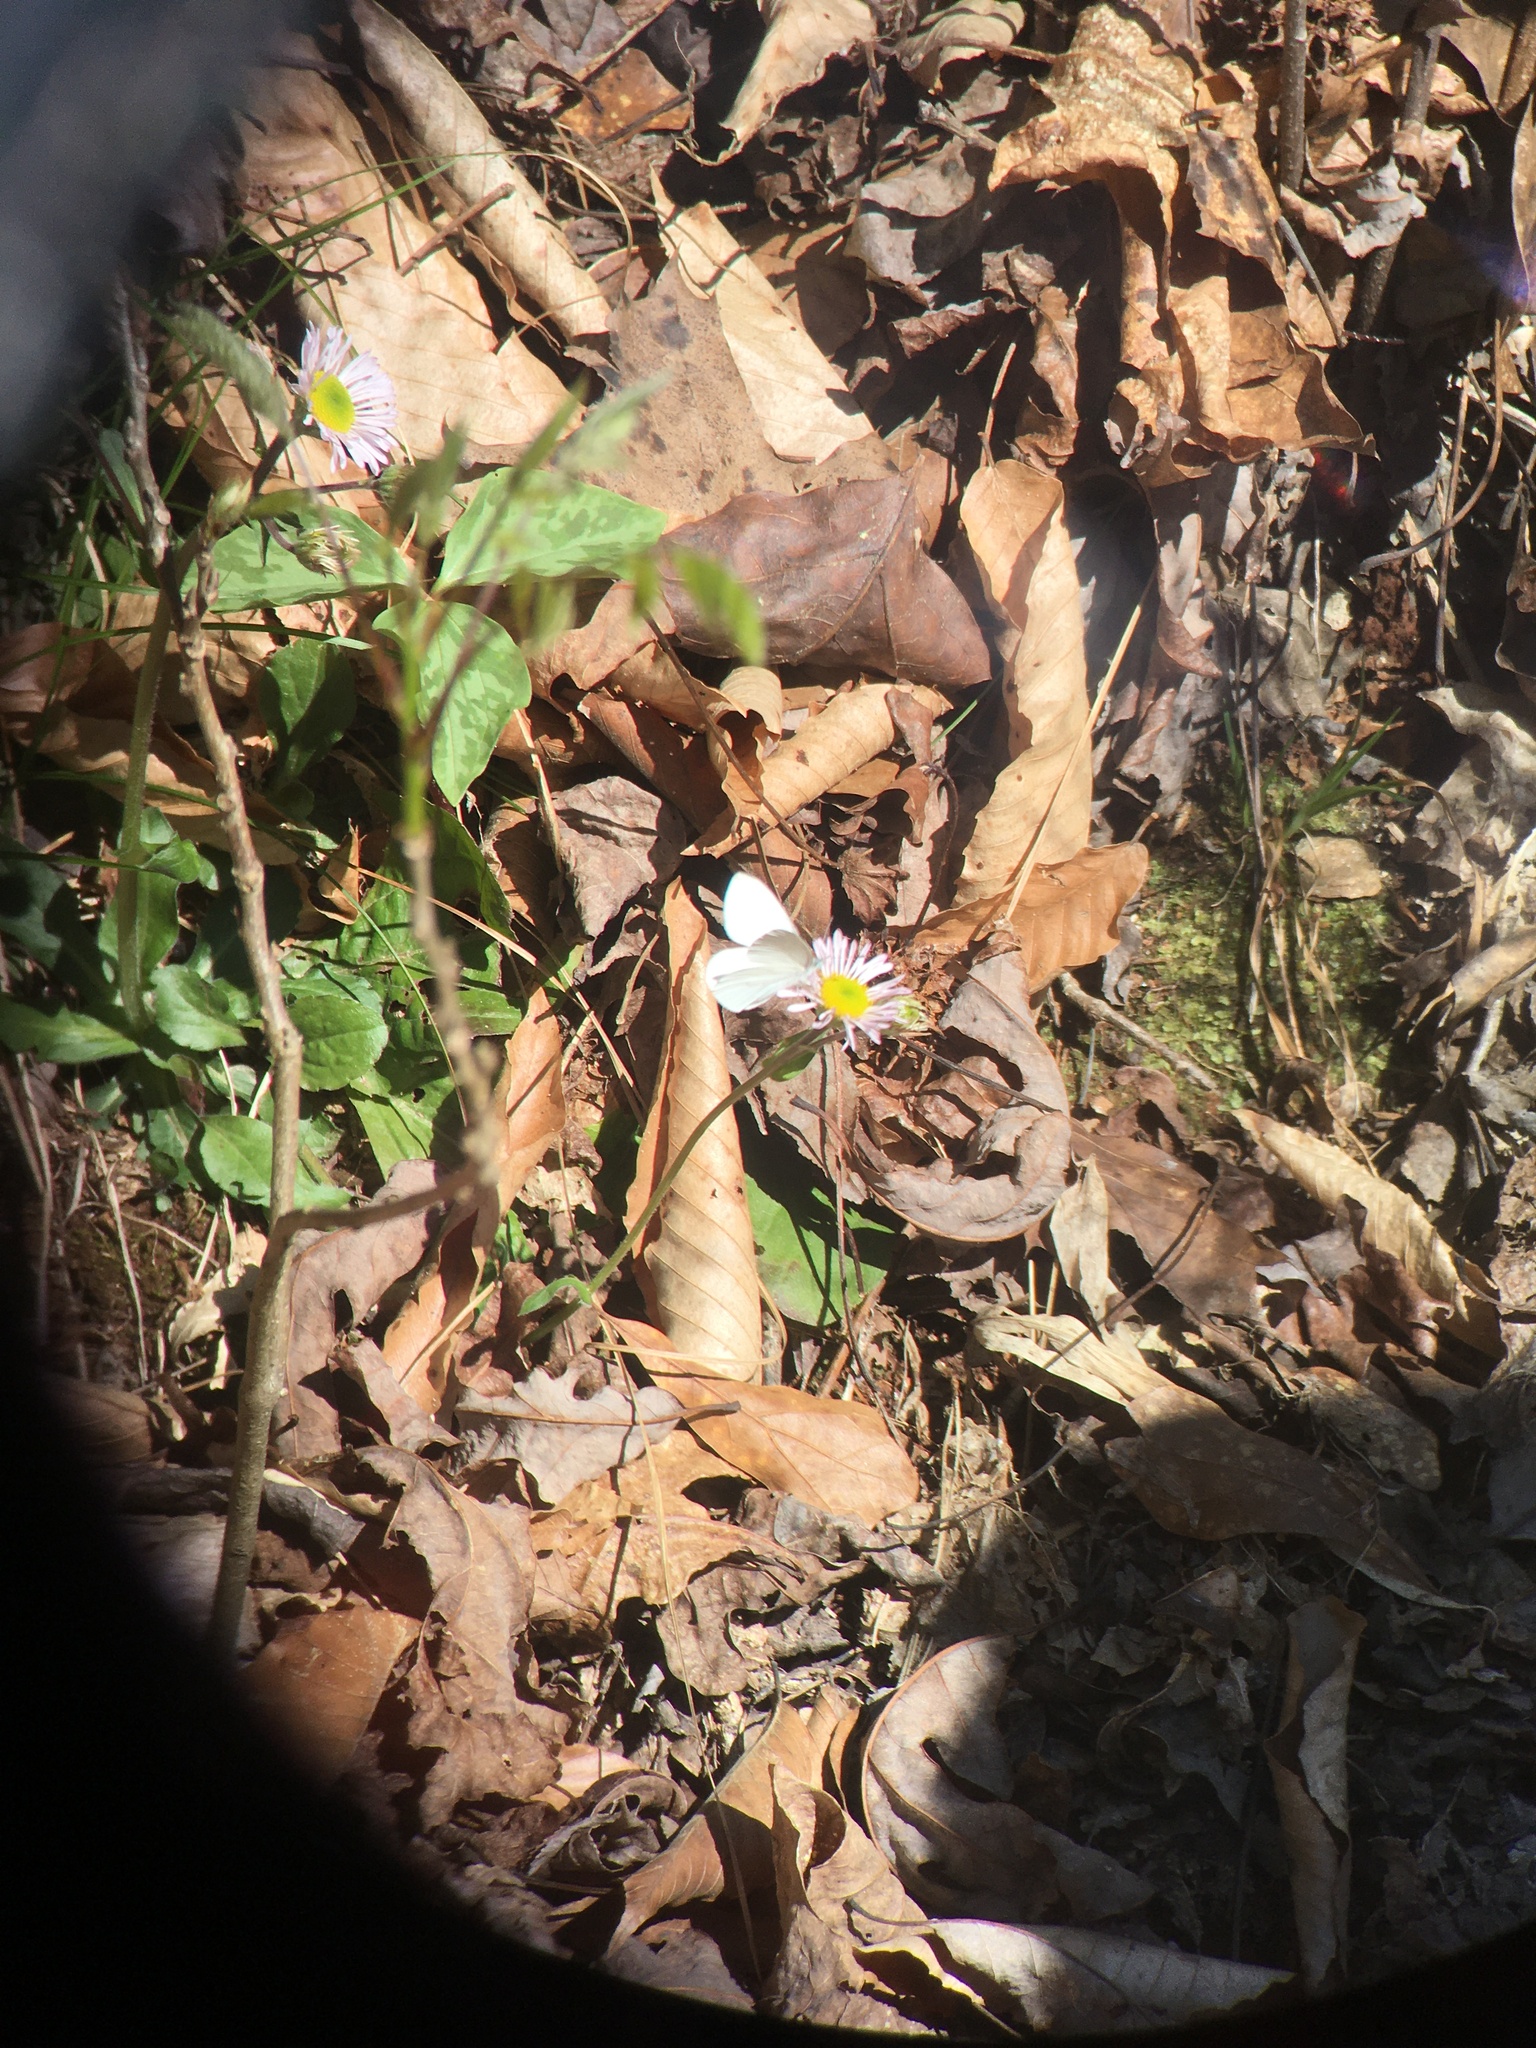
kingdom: Animalia
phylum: Arthropoda
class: Insecta
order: Lepidoptera
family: Pieridae
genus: Pieris
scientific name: Pieris virginiensis
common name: West virginia white
